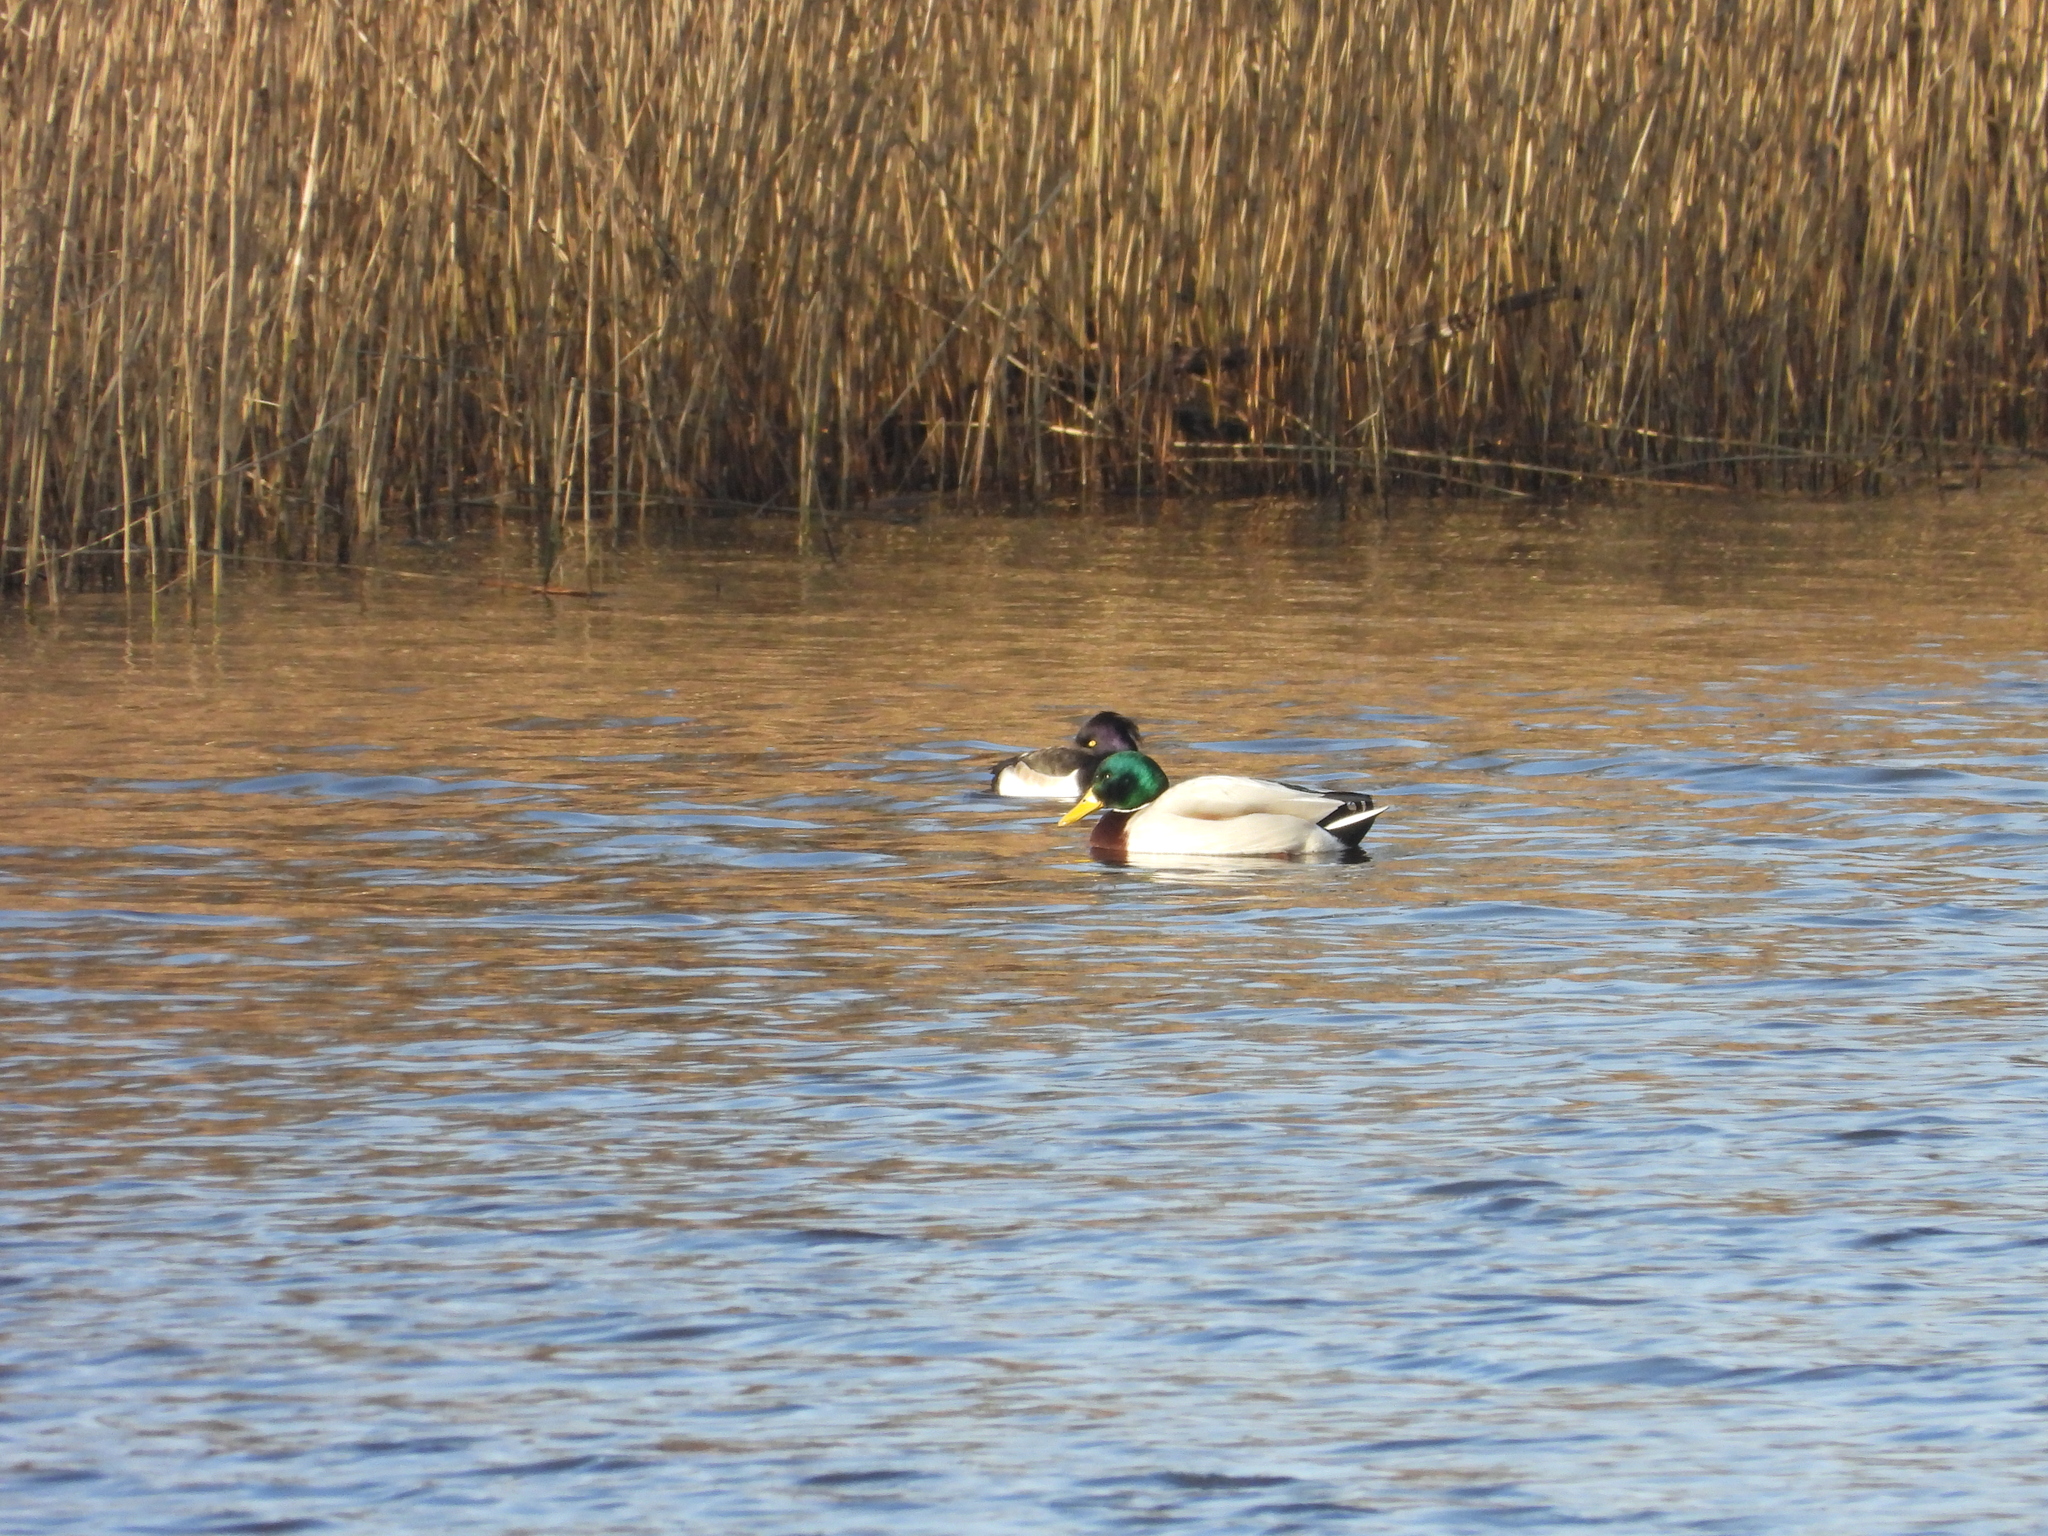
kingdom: Animalia
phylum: Chordata
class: Aves
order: Anseriformes
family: Anatidae
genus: Anas
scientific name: Anas platyrhynchos
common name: Mallard
